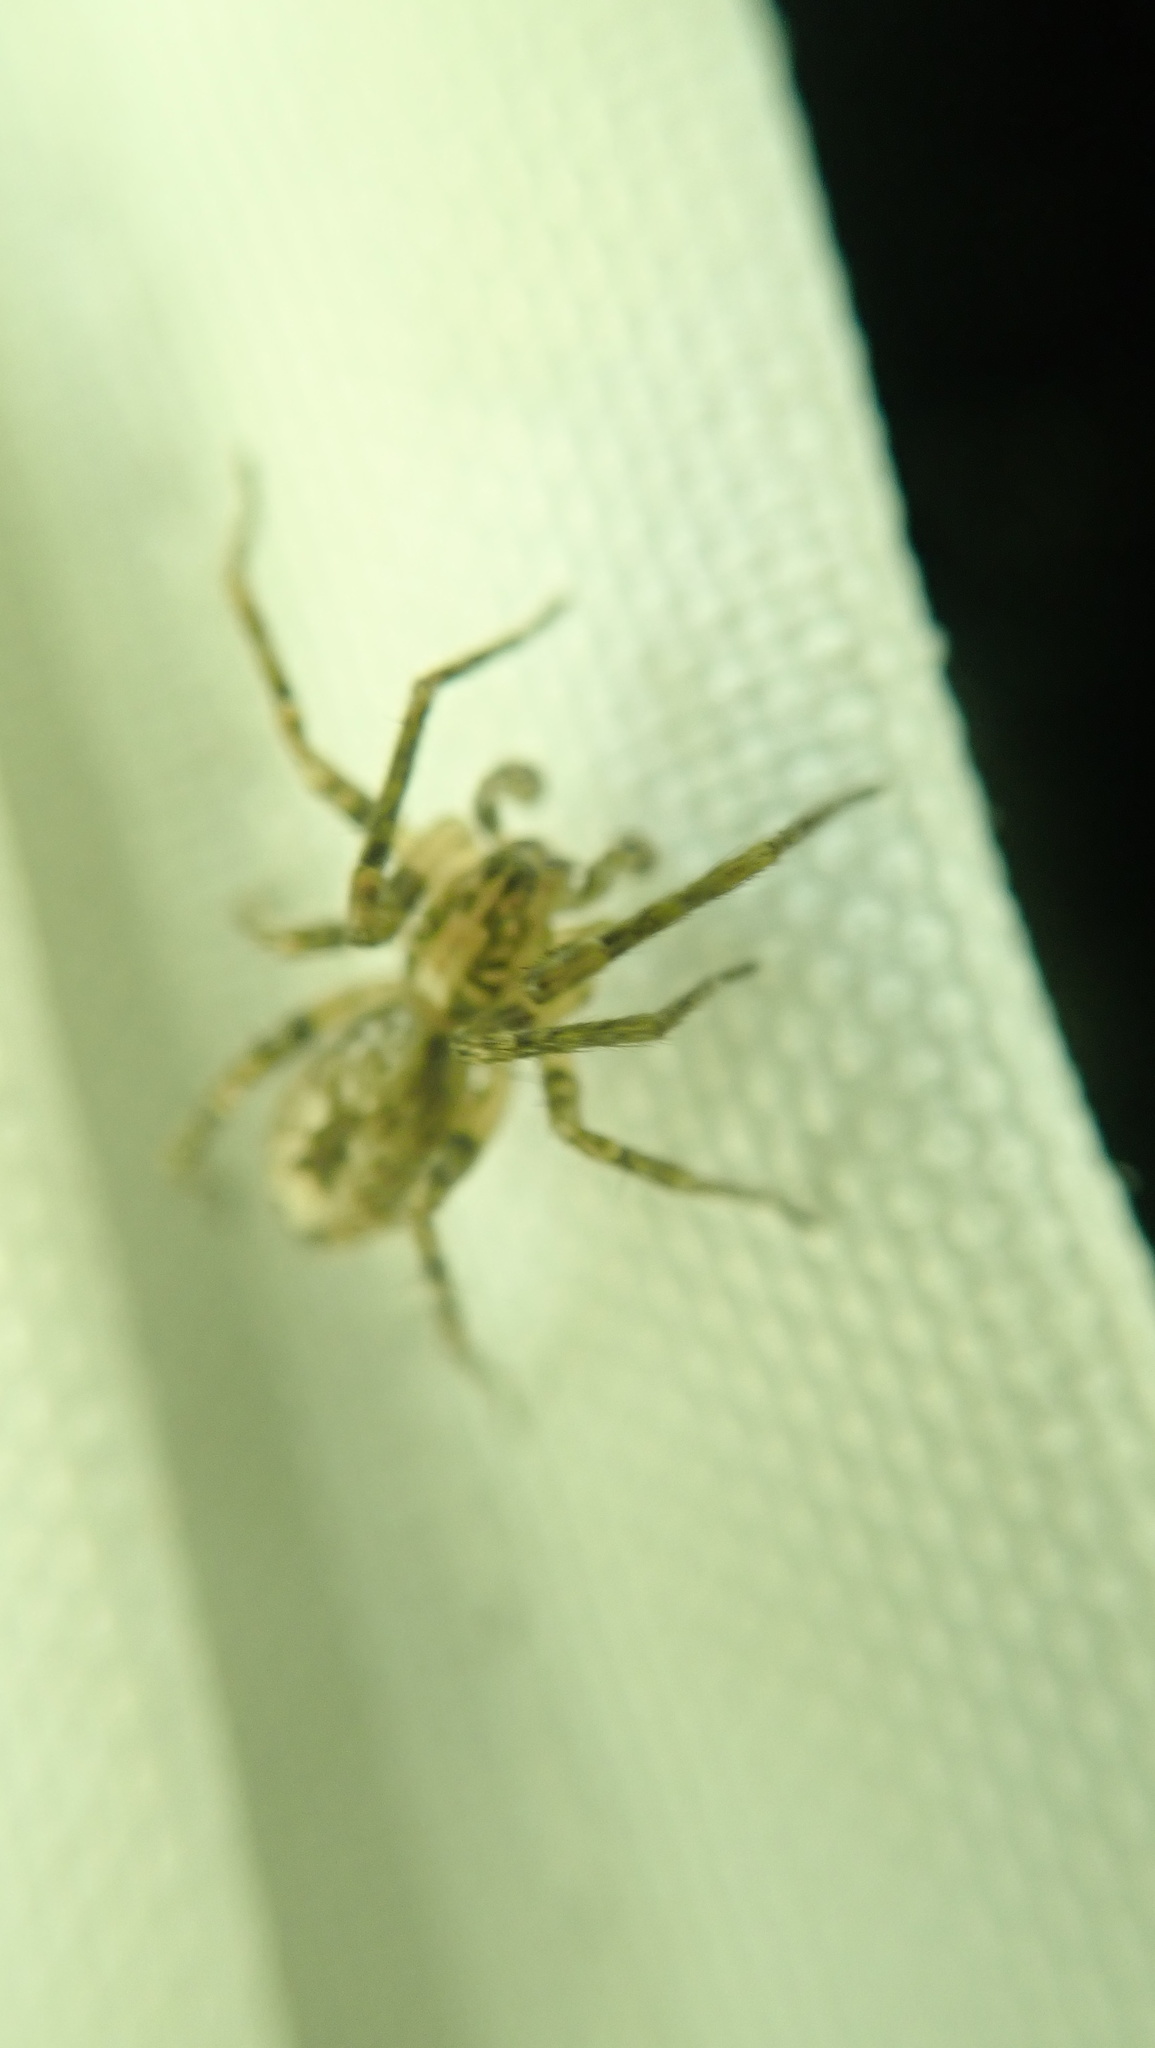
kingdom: Animalia
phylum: Arthropoda
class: Arachnida
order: Araneae
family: Anyphaenidae
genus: Anyphaena
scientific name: Anyphaena accentuata
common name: Buzzing spider
